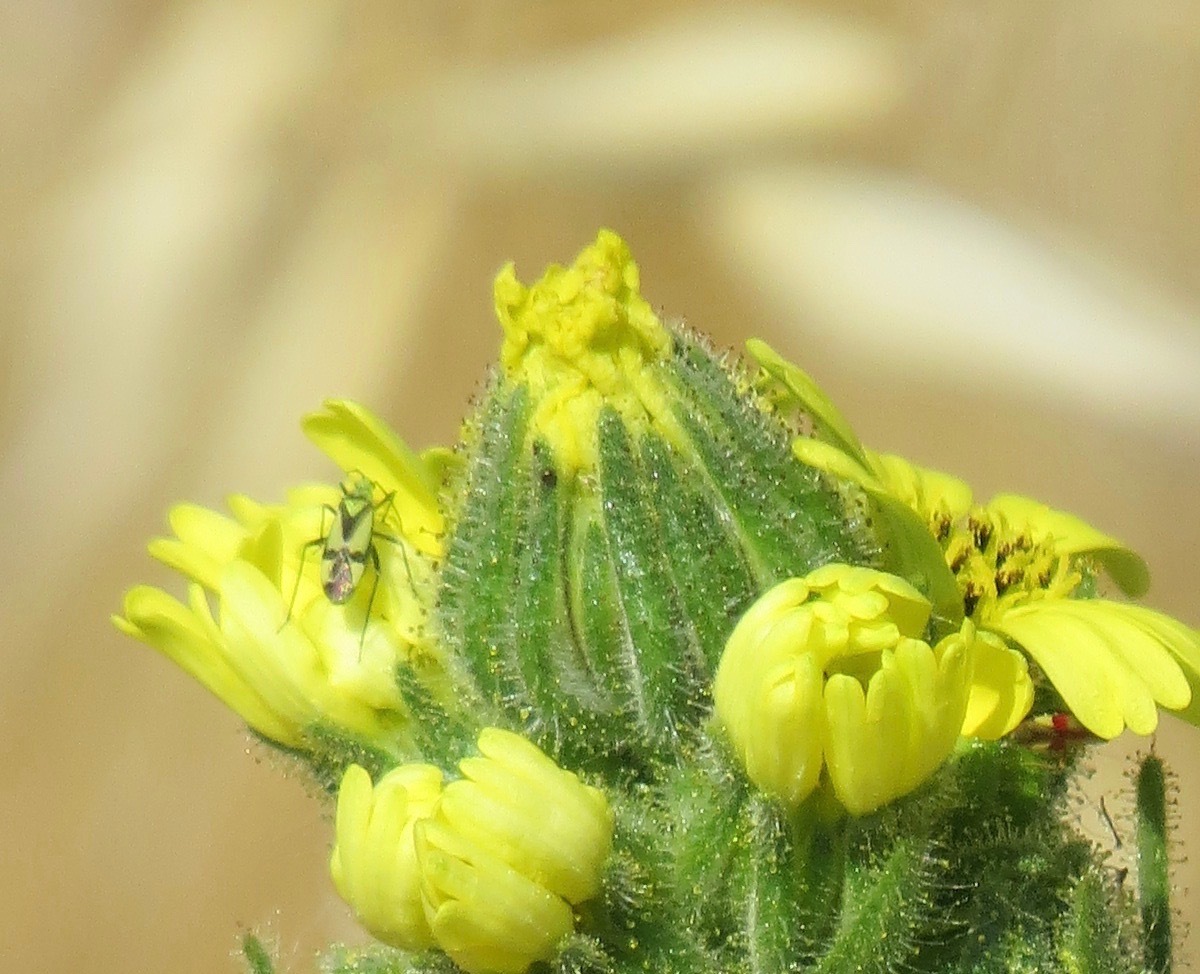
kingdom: Animalia
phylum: Arthropoda
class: Insecta
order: Hemiptera
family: Miridae
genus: Macrotylus
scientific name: Macrotylus essigi
